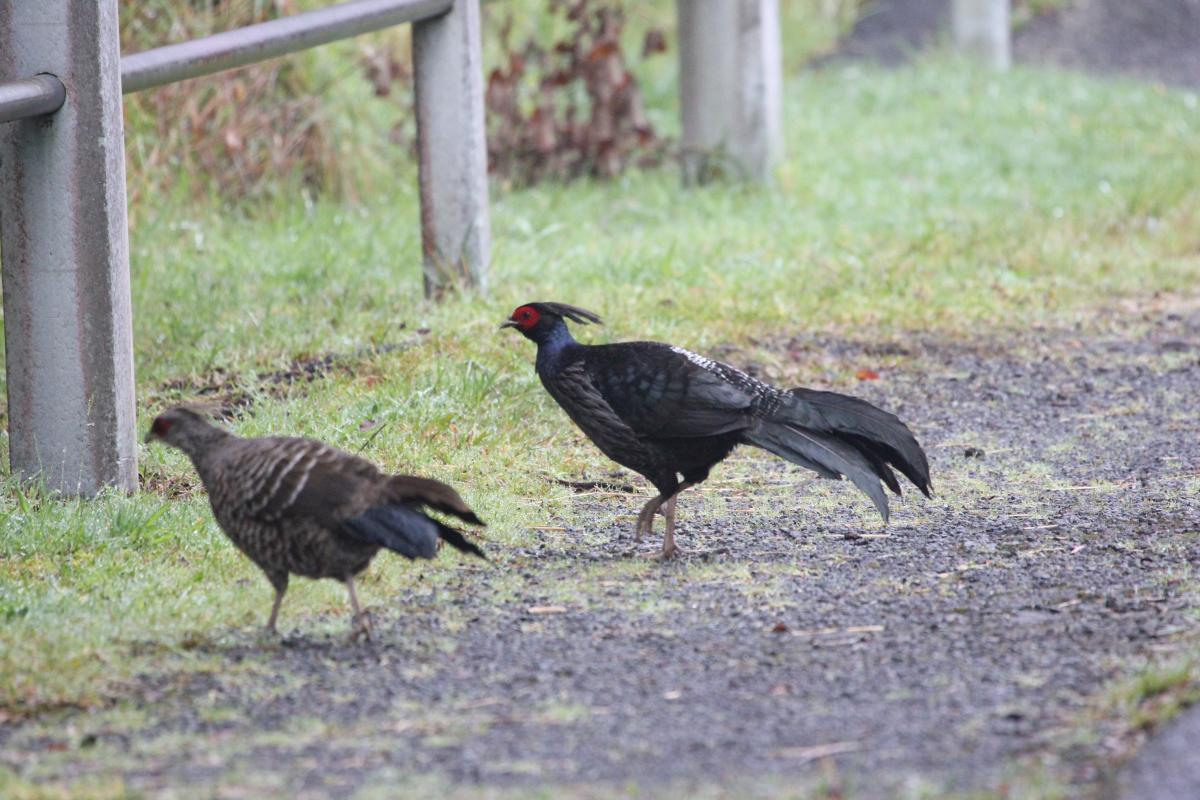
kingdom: Animalia
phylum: Chordata
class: Aves
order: Galliformes
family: Phasianidae
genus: Lophura
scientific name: Lophura leucomelanos
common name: Kalij pheasant
